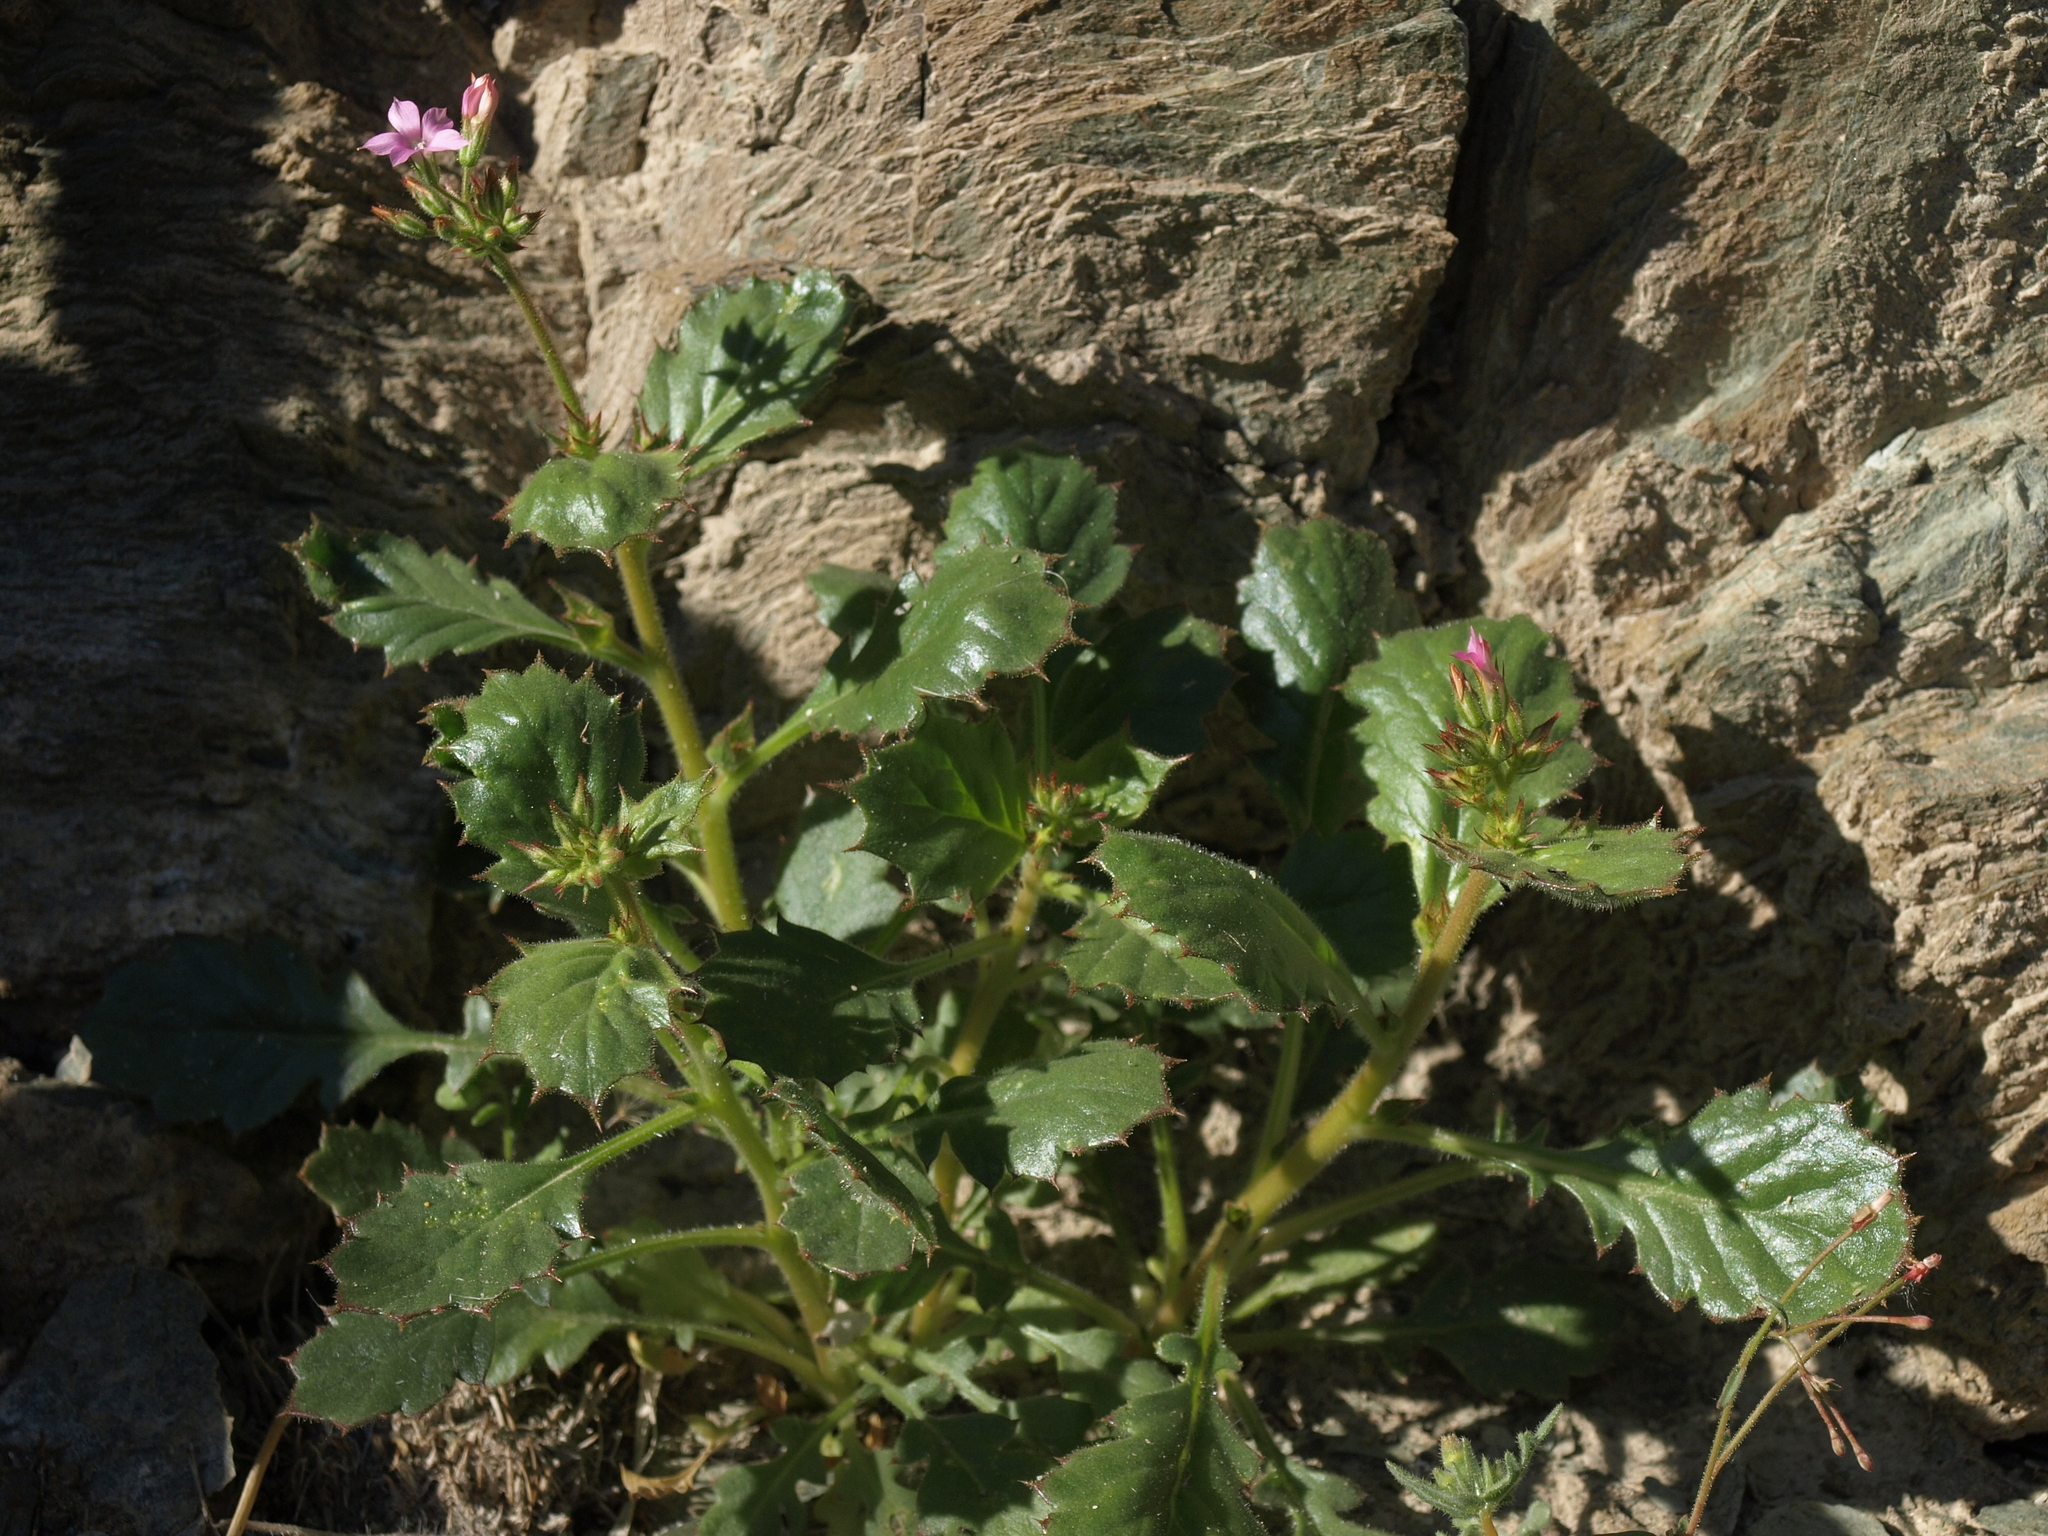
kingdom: Plantae
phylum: Tracheophyta
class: Magnoliopsida
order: Ericales
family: Polemoniaceae
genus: Aliciella
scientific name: Aliciella latifolia
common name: Broad-leaf gilia
